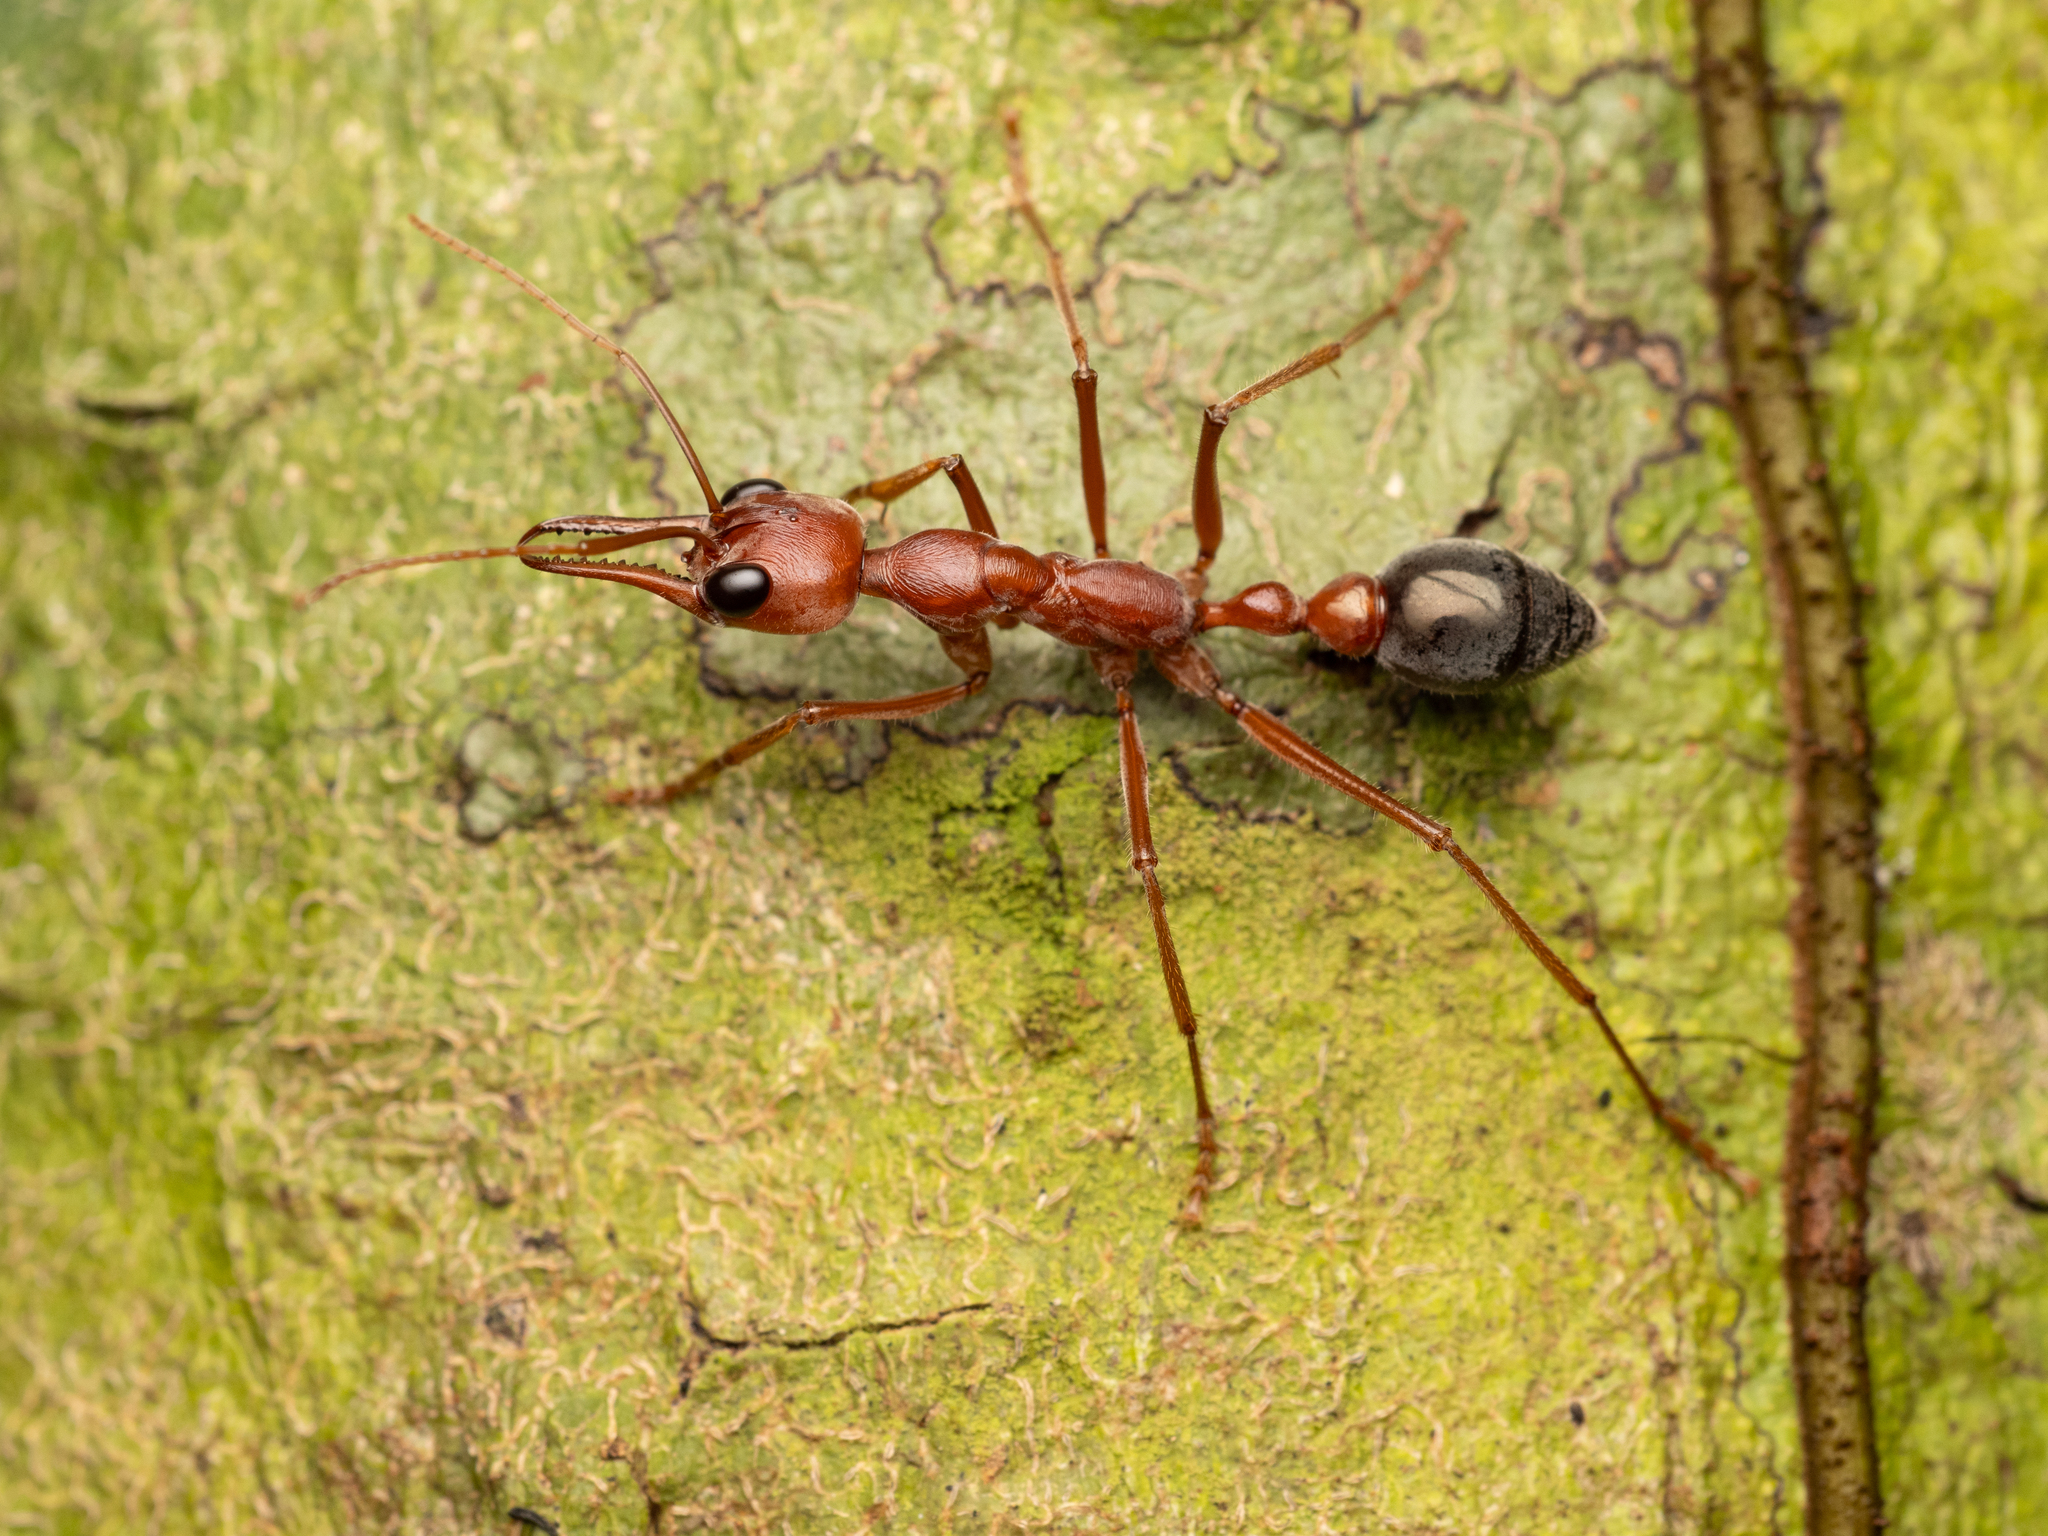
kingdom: Animalia
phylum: Arthropoda
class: Insecta
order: Hymenoptera
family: Formicidae
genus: Myrmecia
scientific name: Myrmecia brevinoda
